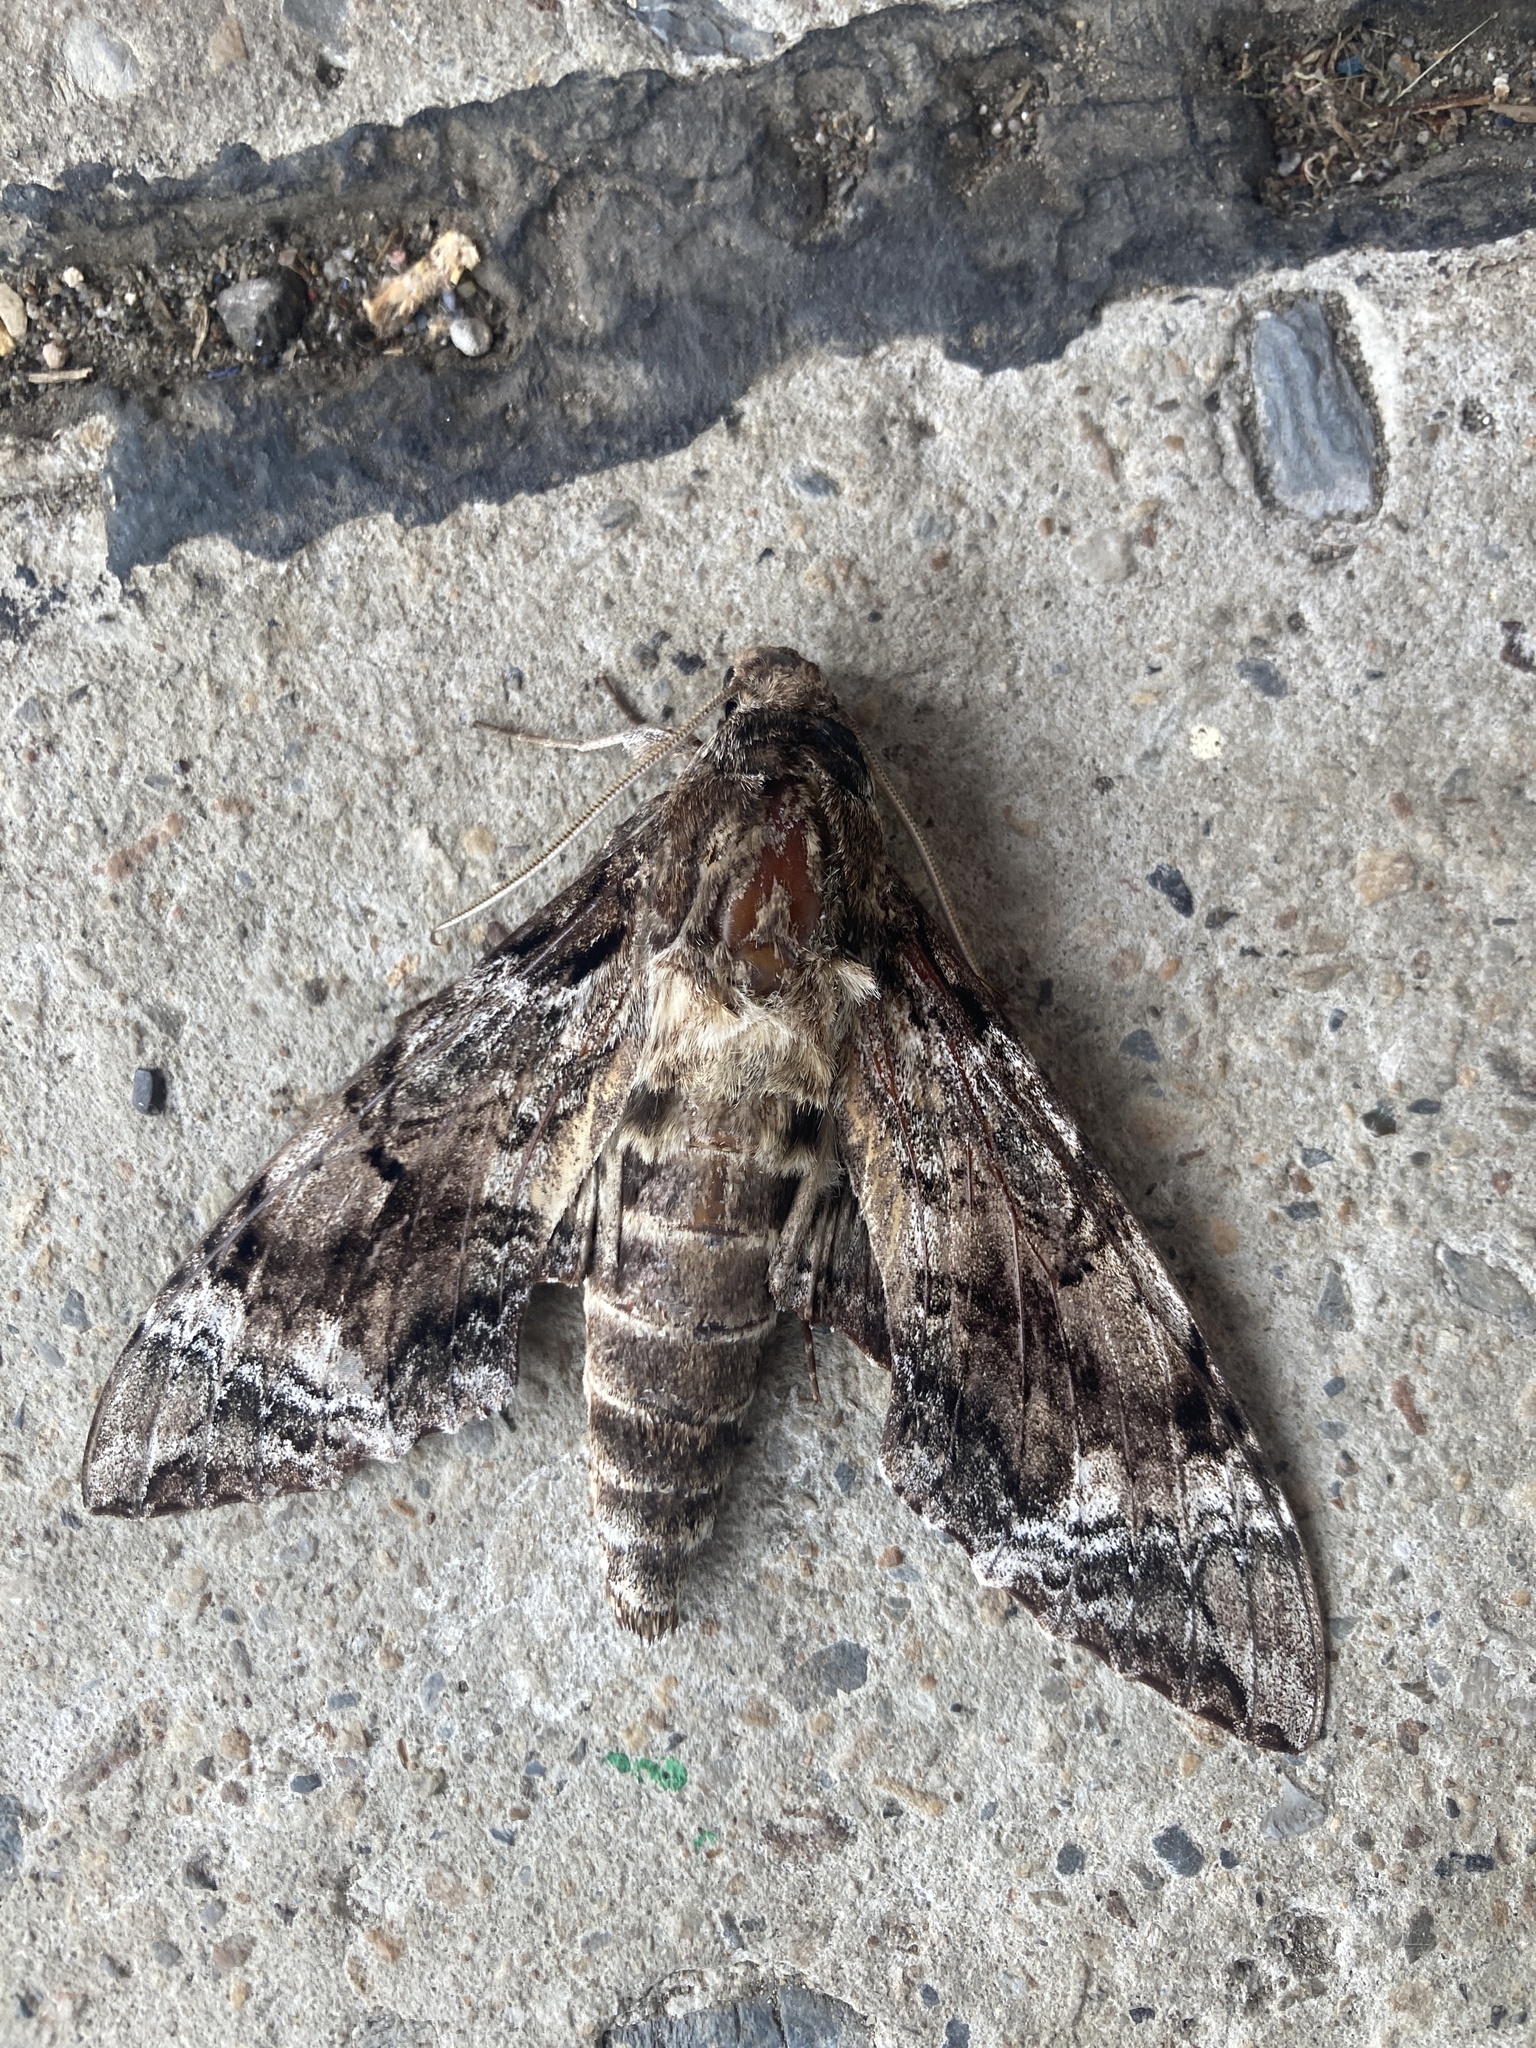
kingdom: Animalia
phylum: Arthropoda
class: Insecta
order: Lepidoptera
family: Sphingidae
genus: Pseudosphinx
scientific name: Pseudosphinx tetrio
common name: Tetrio sphinx
